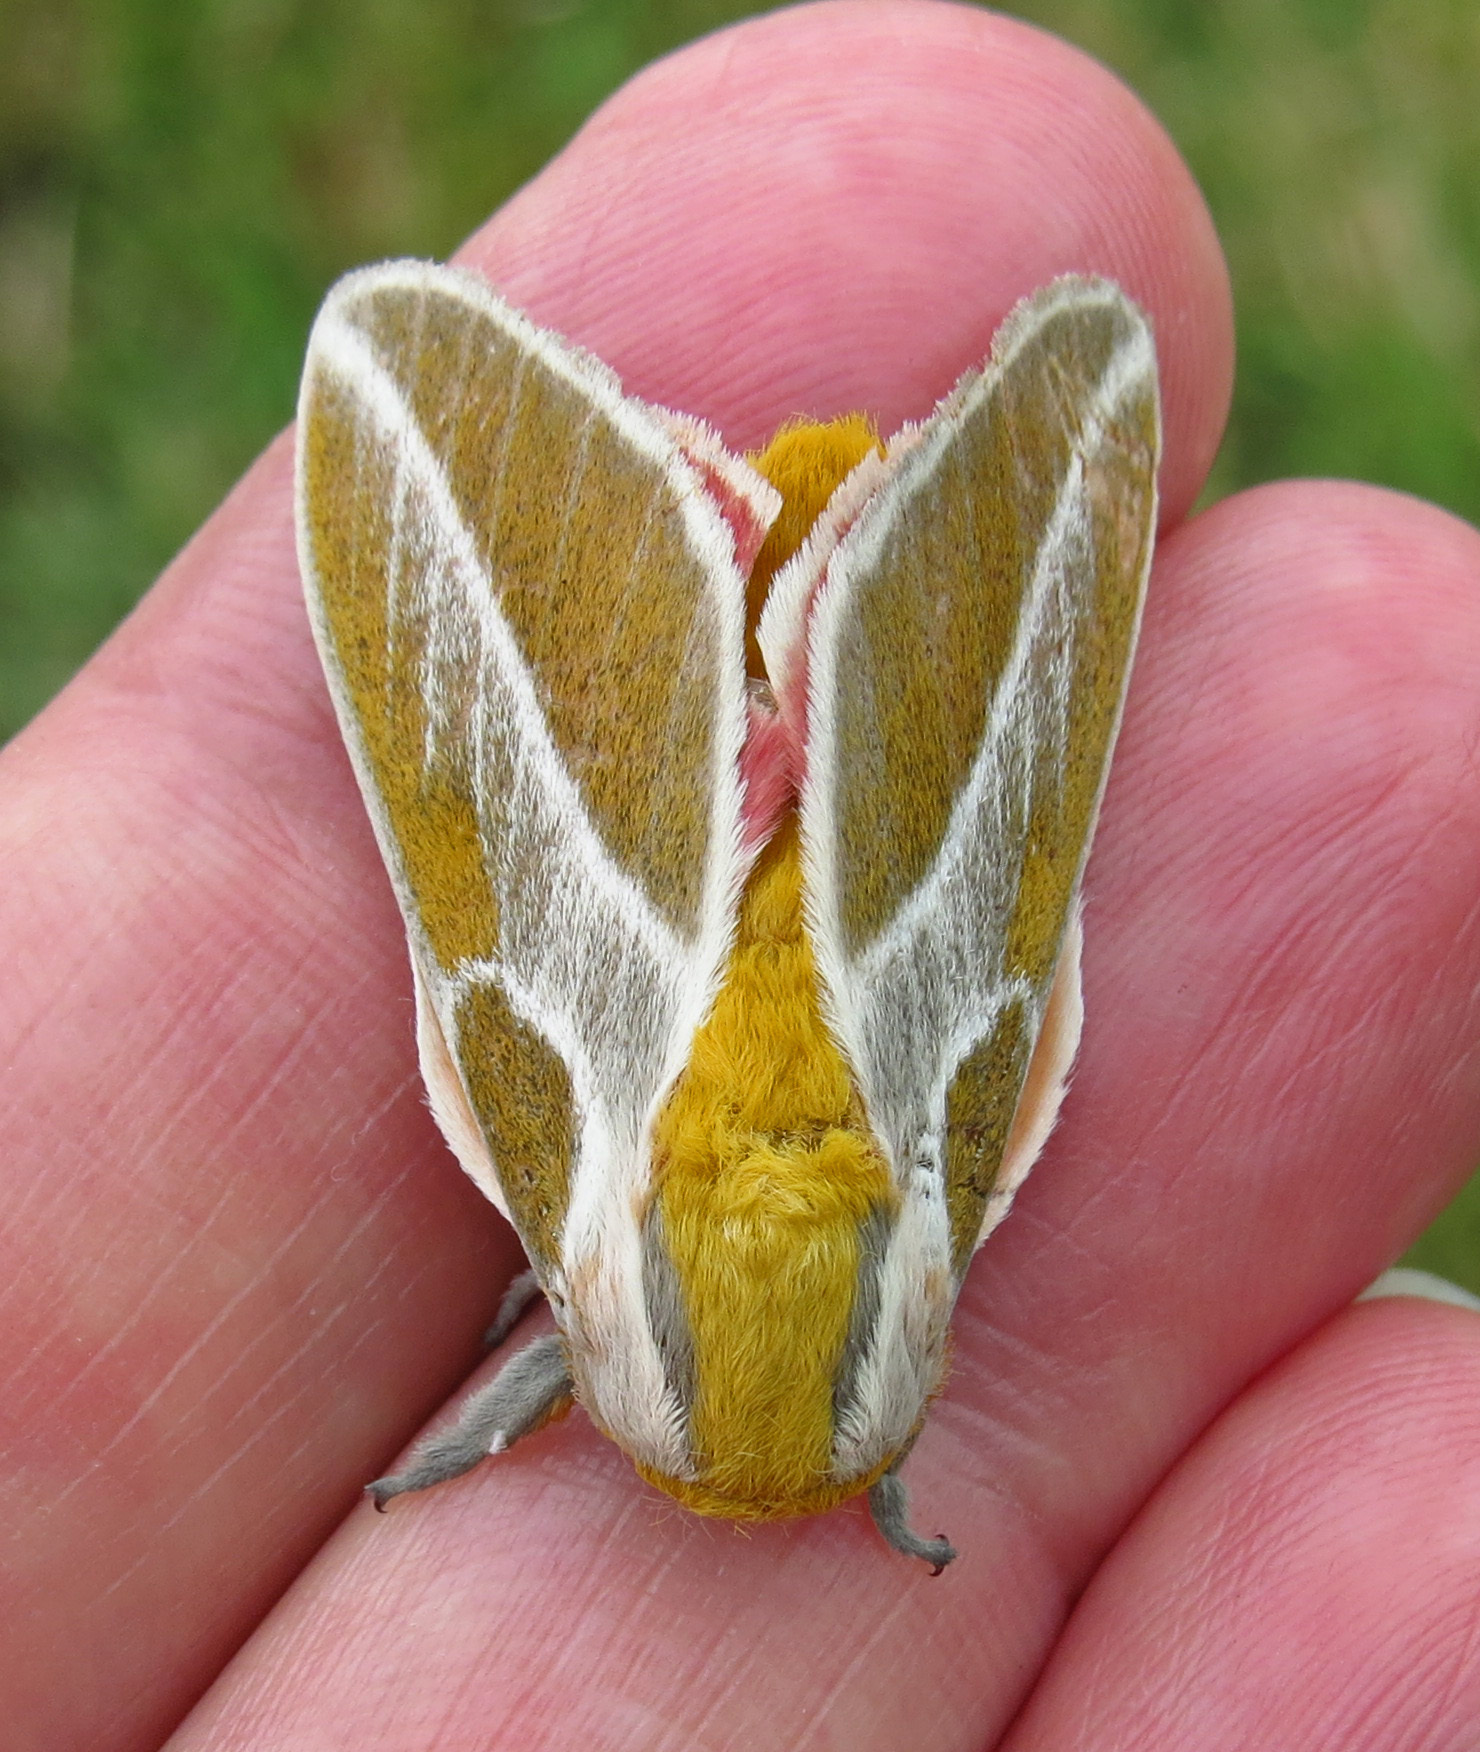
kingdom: Animalia
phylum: Arthropoda
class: Insecta
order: Lepidoptera
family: Saturniidae
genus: Syssphinx
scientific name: Syssphinx albolineata
